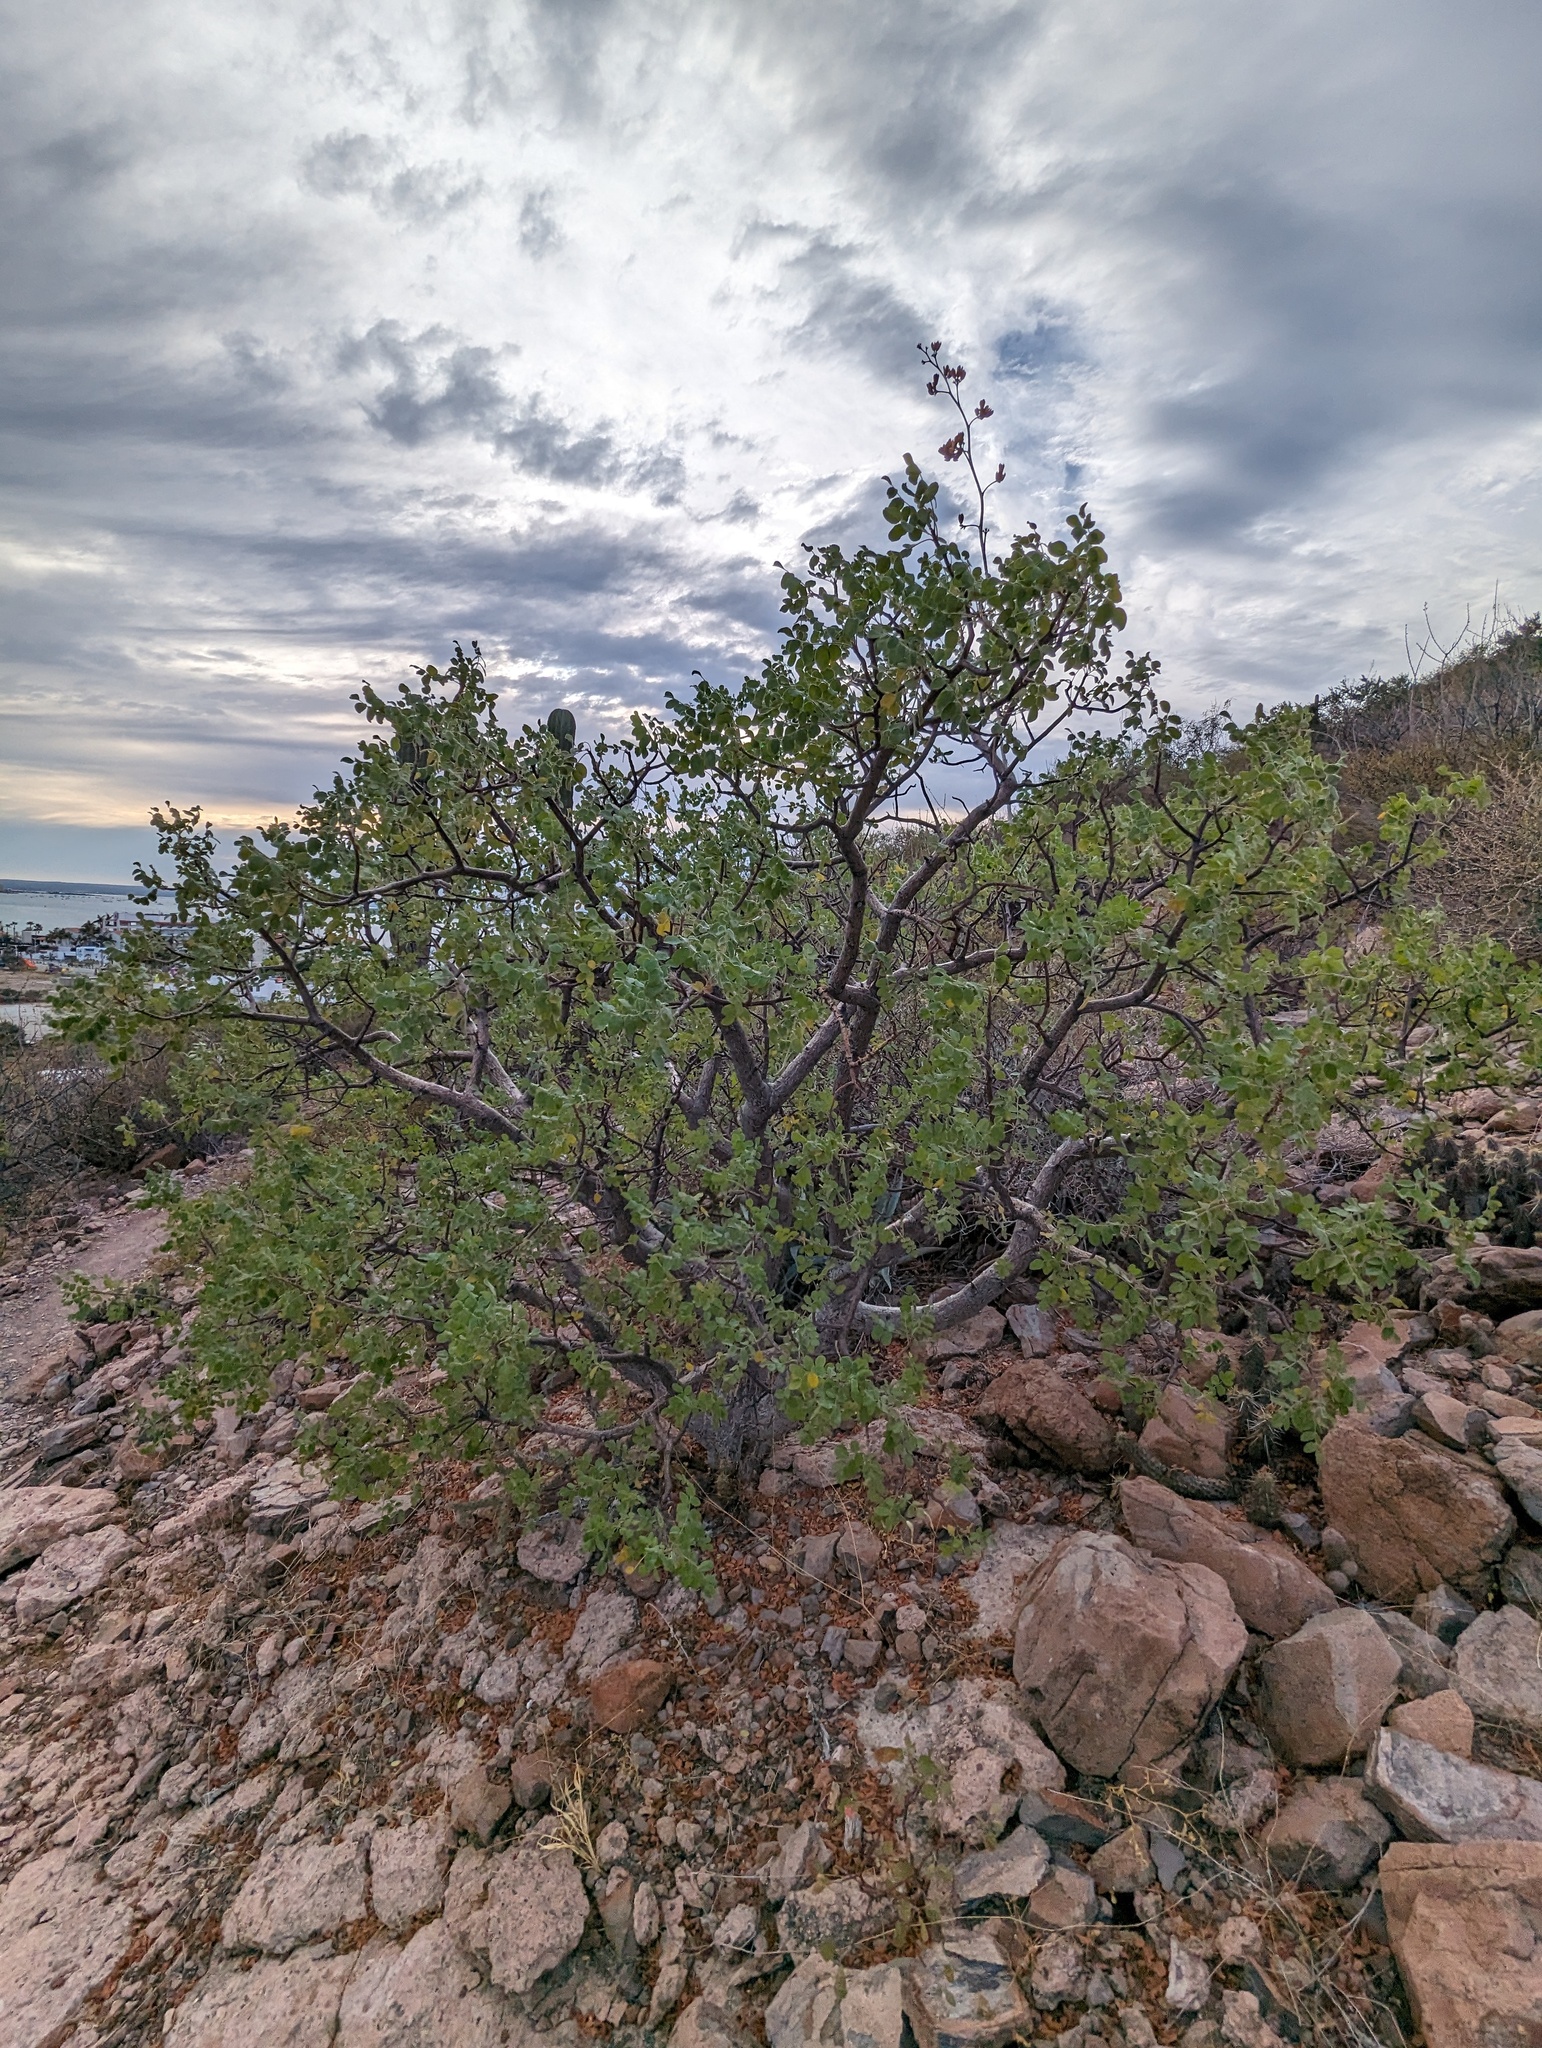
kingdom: Plantae
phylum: Tracheophyta
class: Magnoliopsida
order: Sapindales
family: Anacardiaceae
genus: Cyrtocarpa
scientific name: Cyrtocarpa edulis
